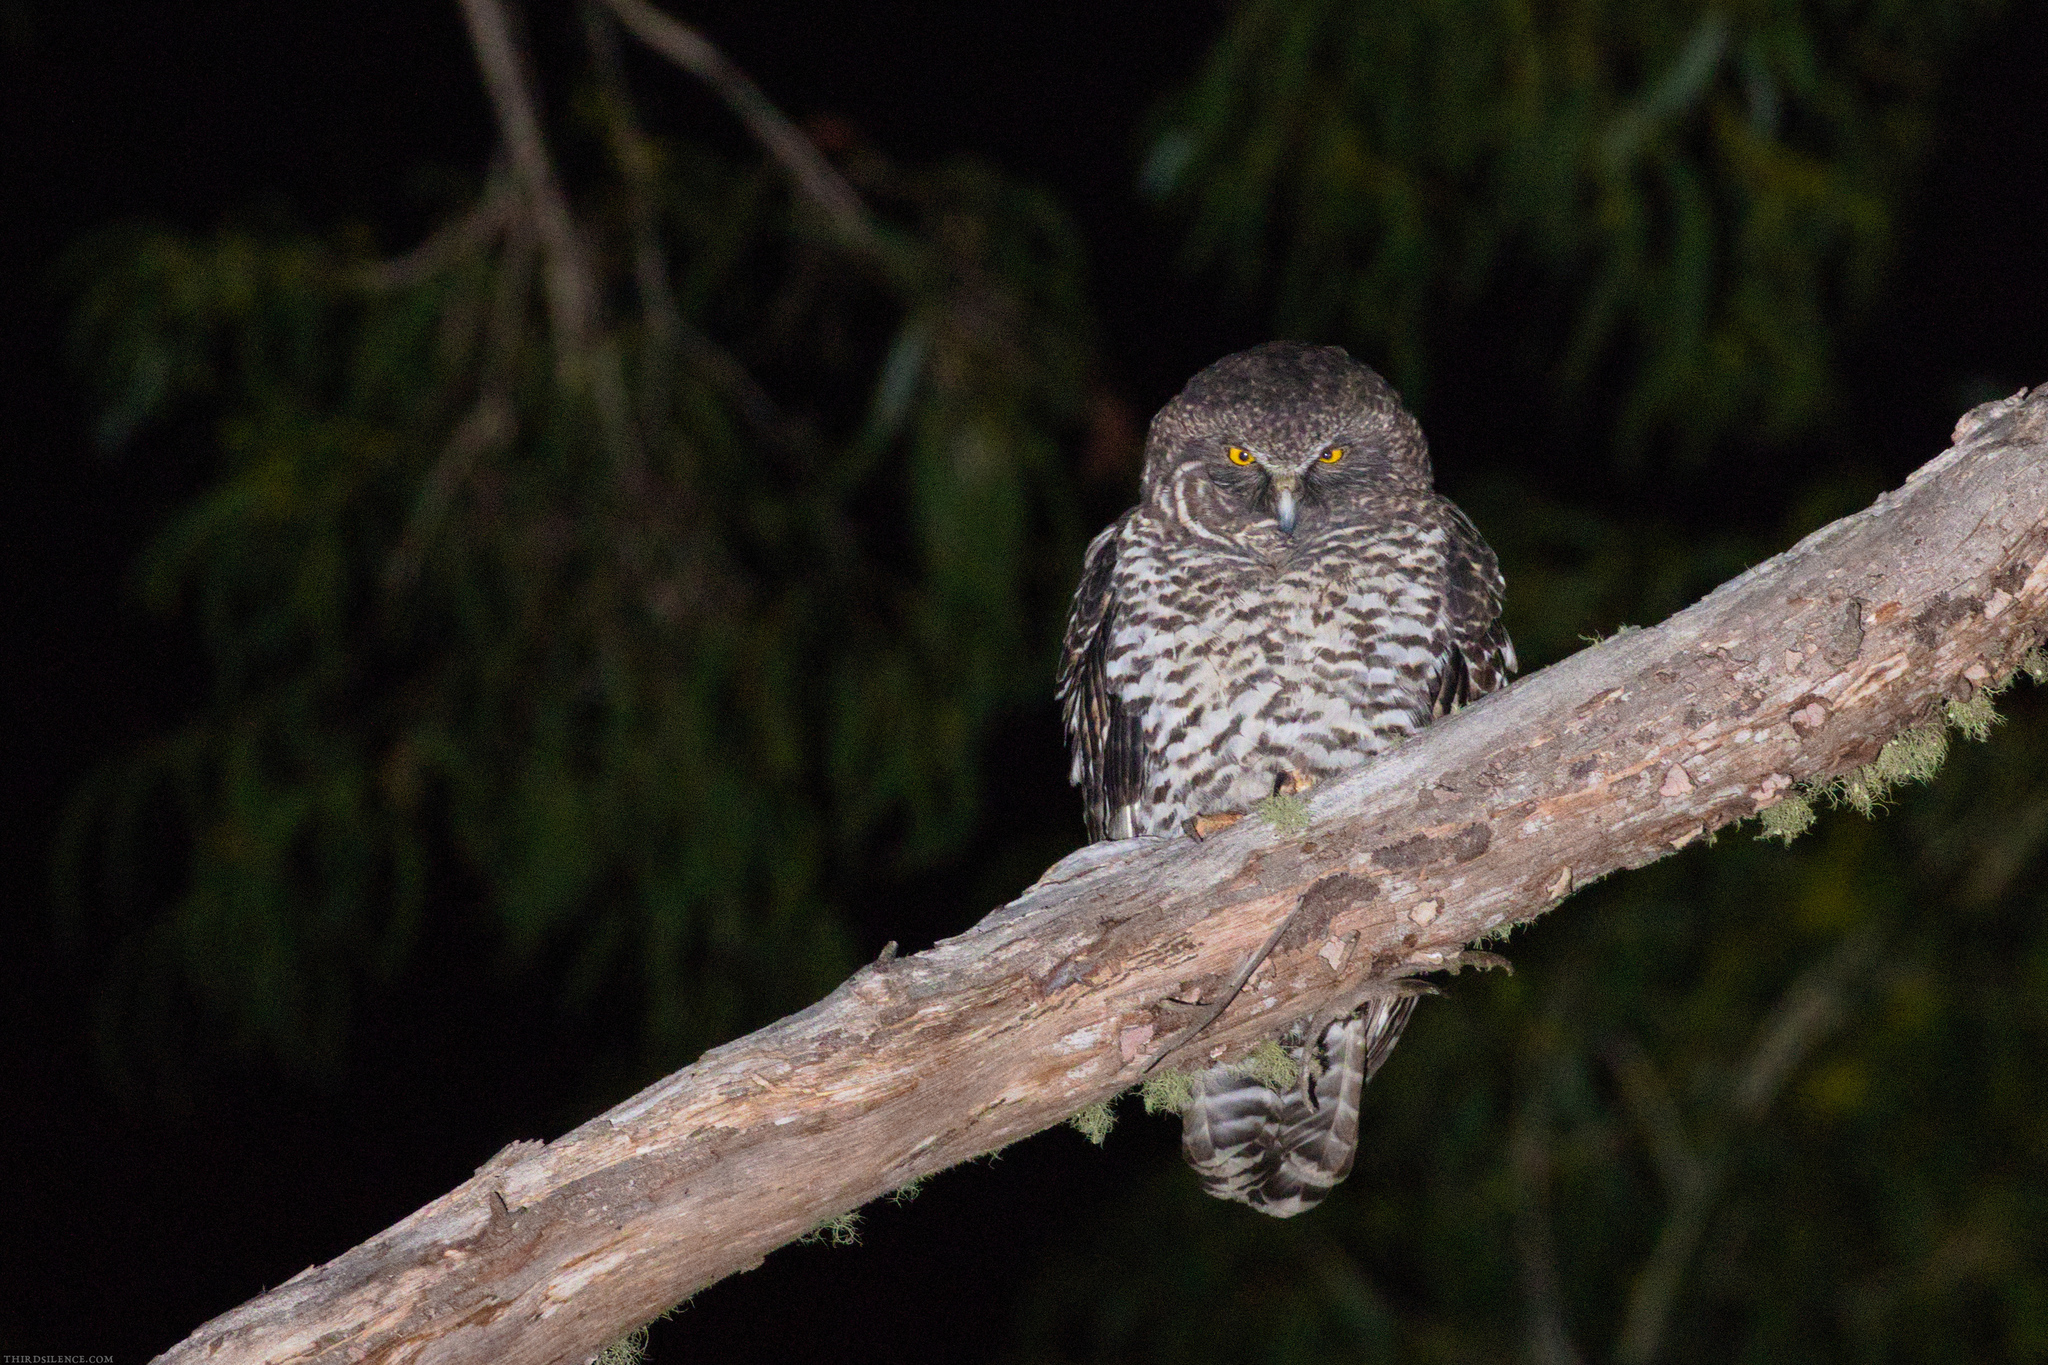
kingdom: Animalia
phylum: Chordata
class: Aves
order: Strigiformes
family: Strigidae
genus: Ninox
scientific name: Ninox strenua
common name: Powerful owl
